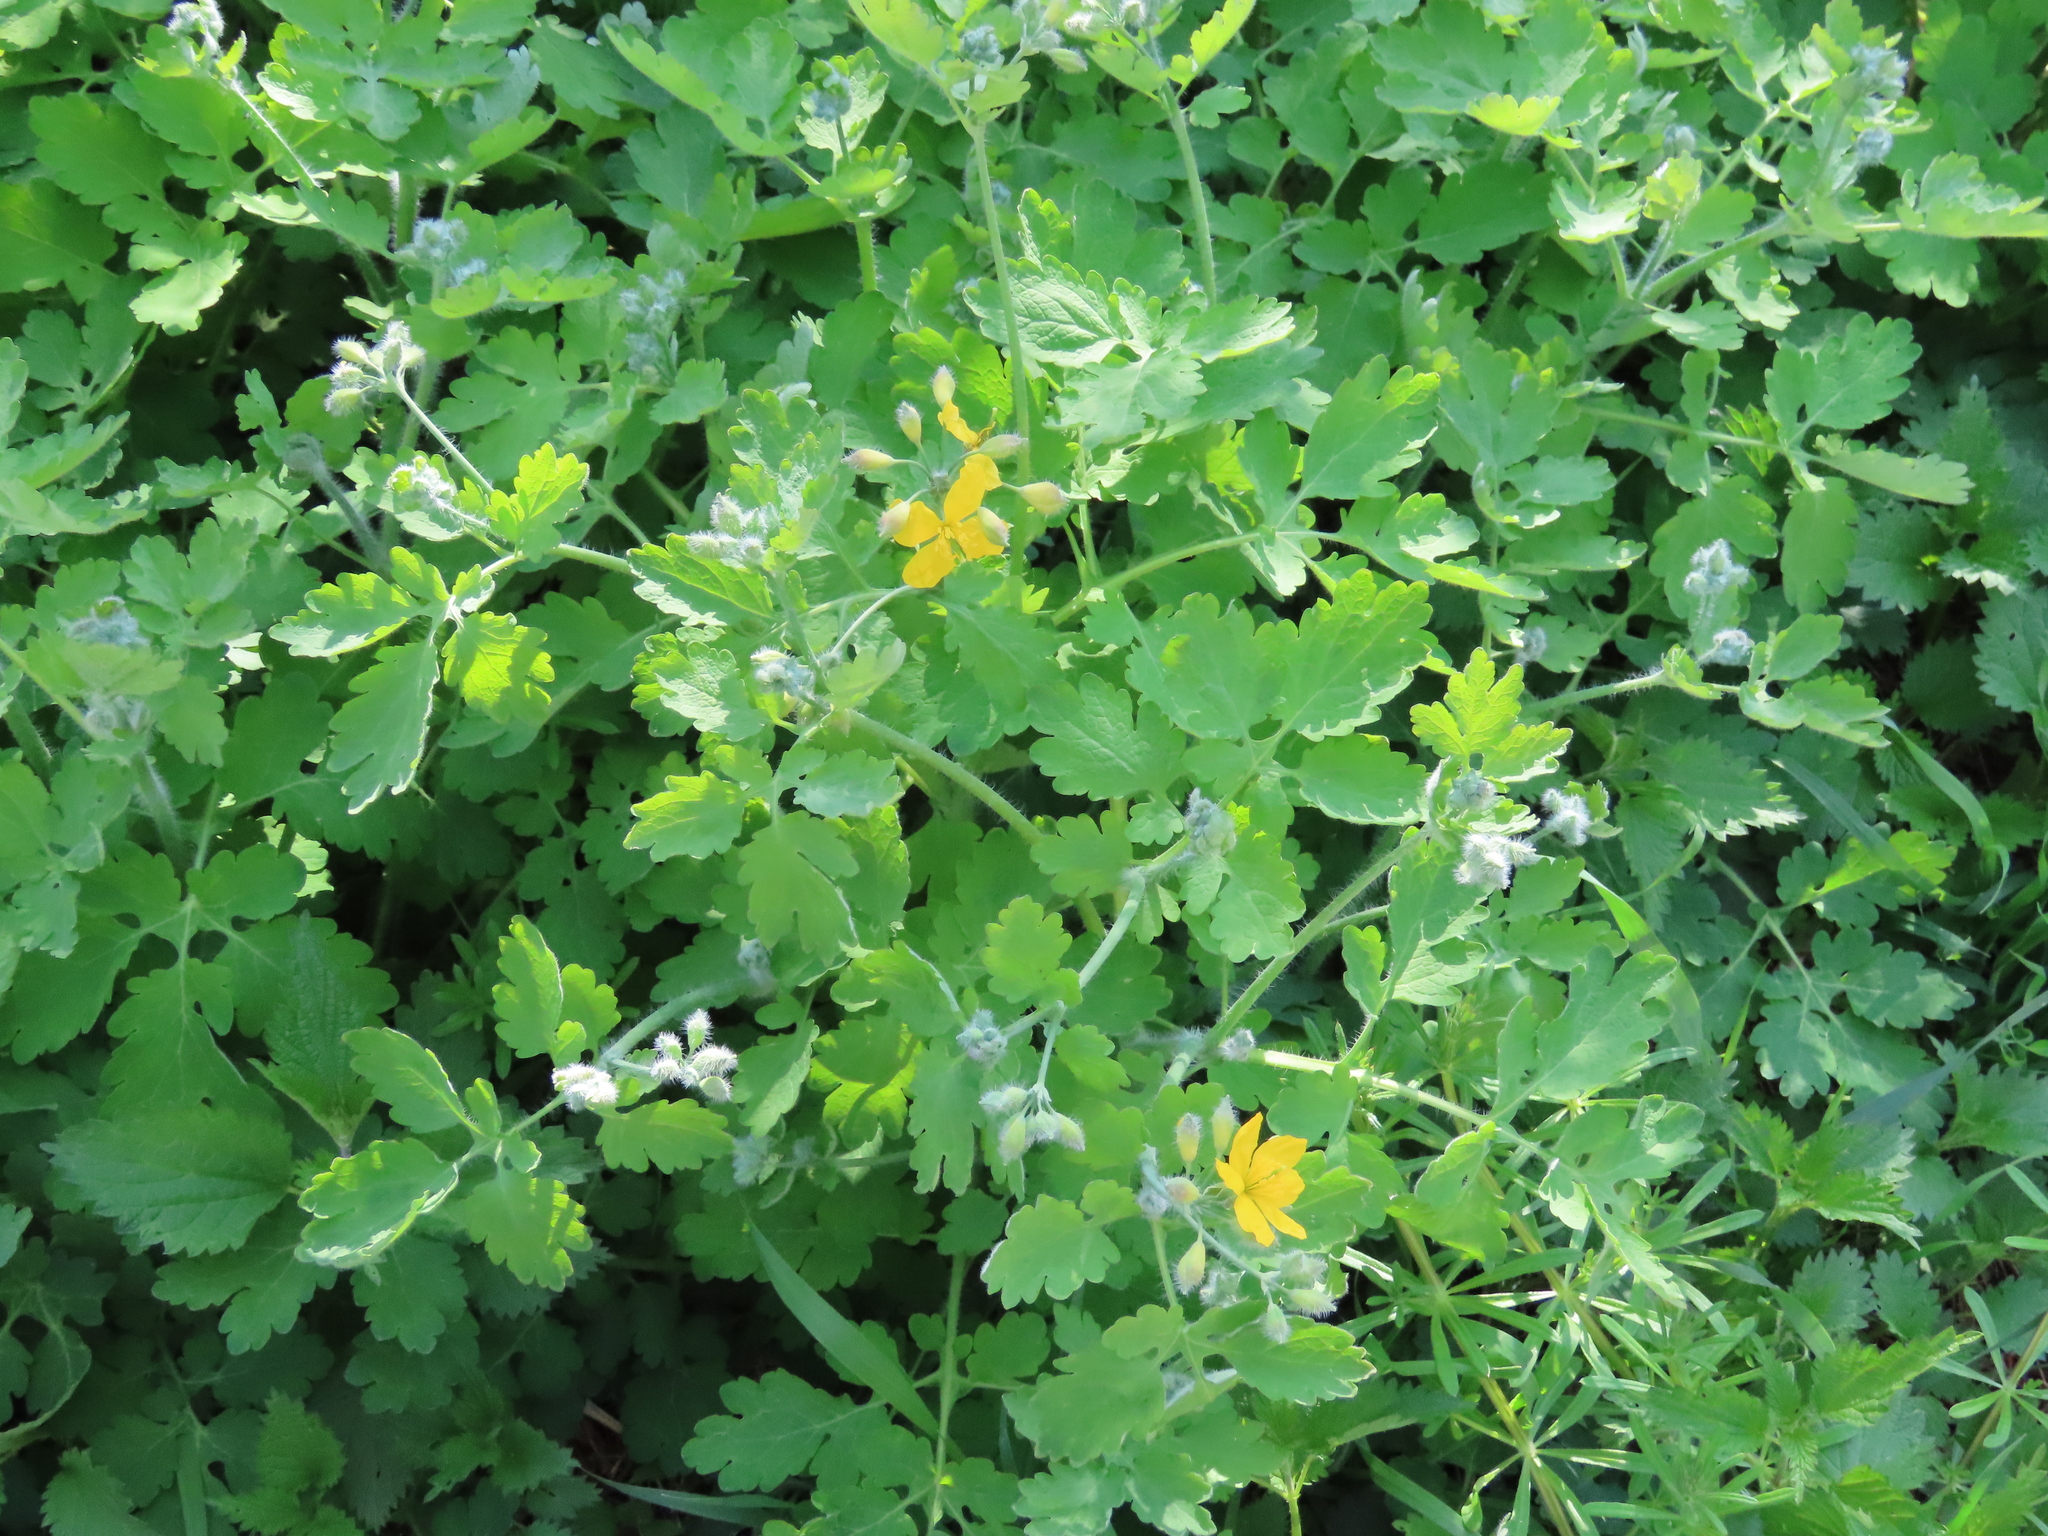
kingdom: Plantae
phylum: Tracheophyta
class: Magnoliopsida
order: Ranunculales
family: Papaveraceae
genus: Chelidonium
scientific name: Chelidonium majus
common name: Greater celandine
